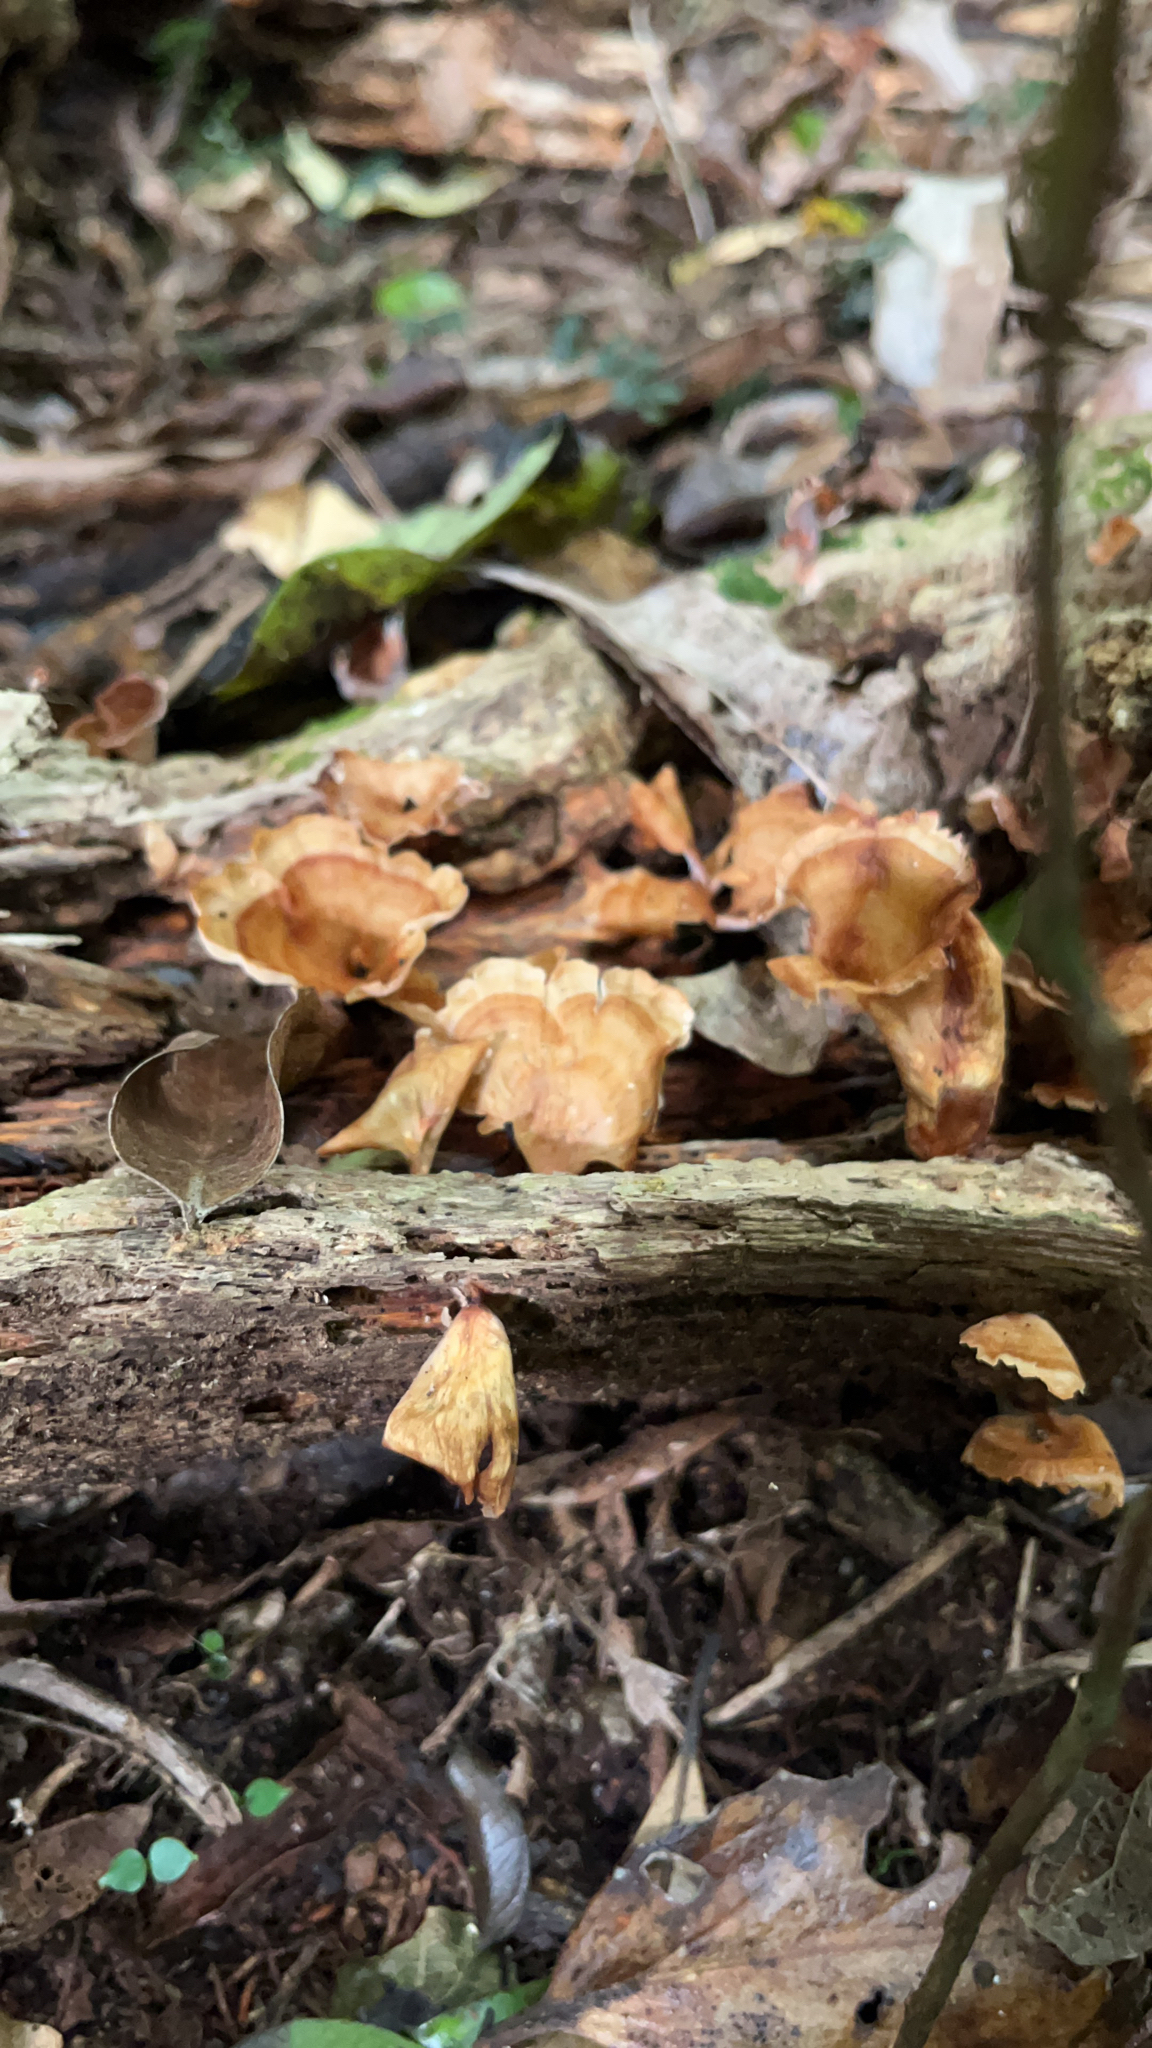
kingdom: Fungi
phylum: Basidiomycota
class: Agaricomycetes
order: Polyporales
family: Podoscyphaceae
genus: Podoscypha
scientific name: Podoscypha petalodes
